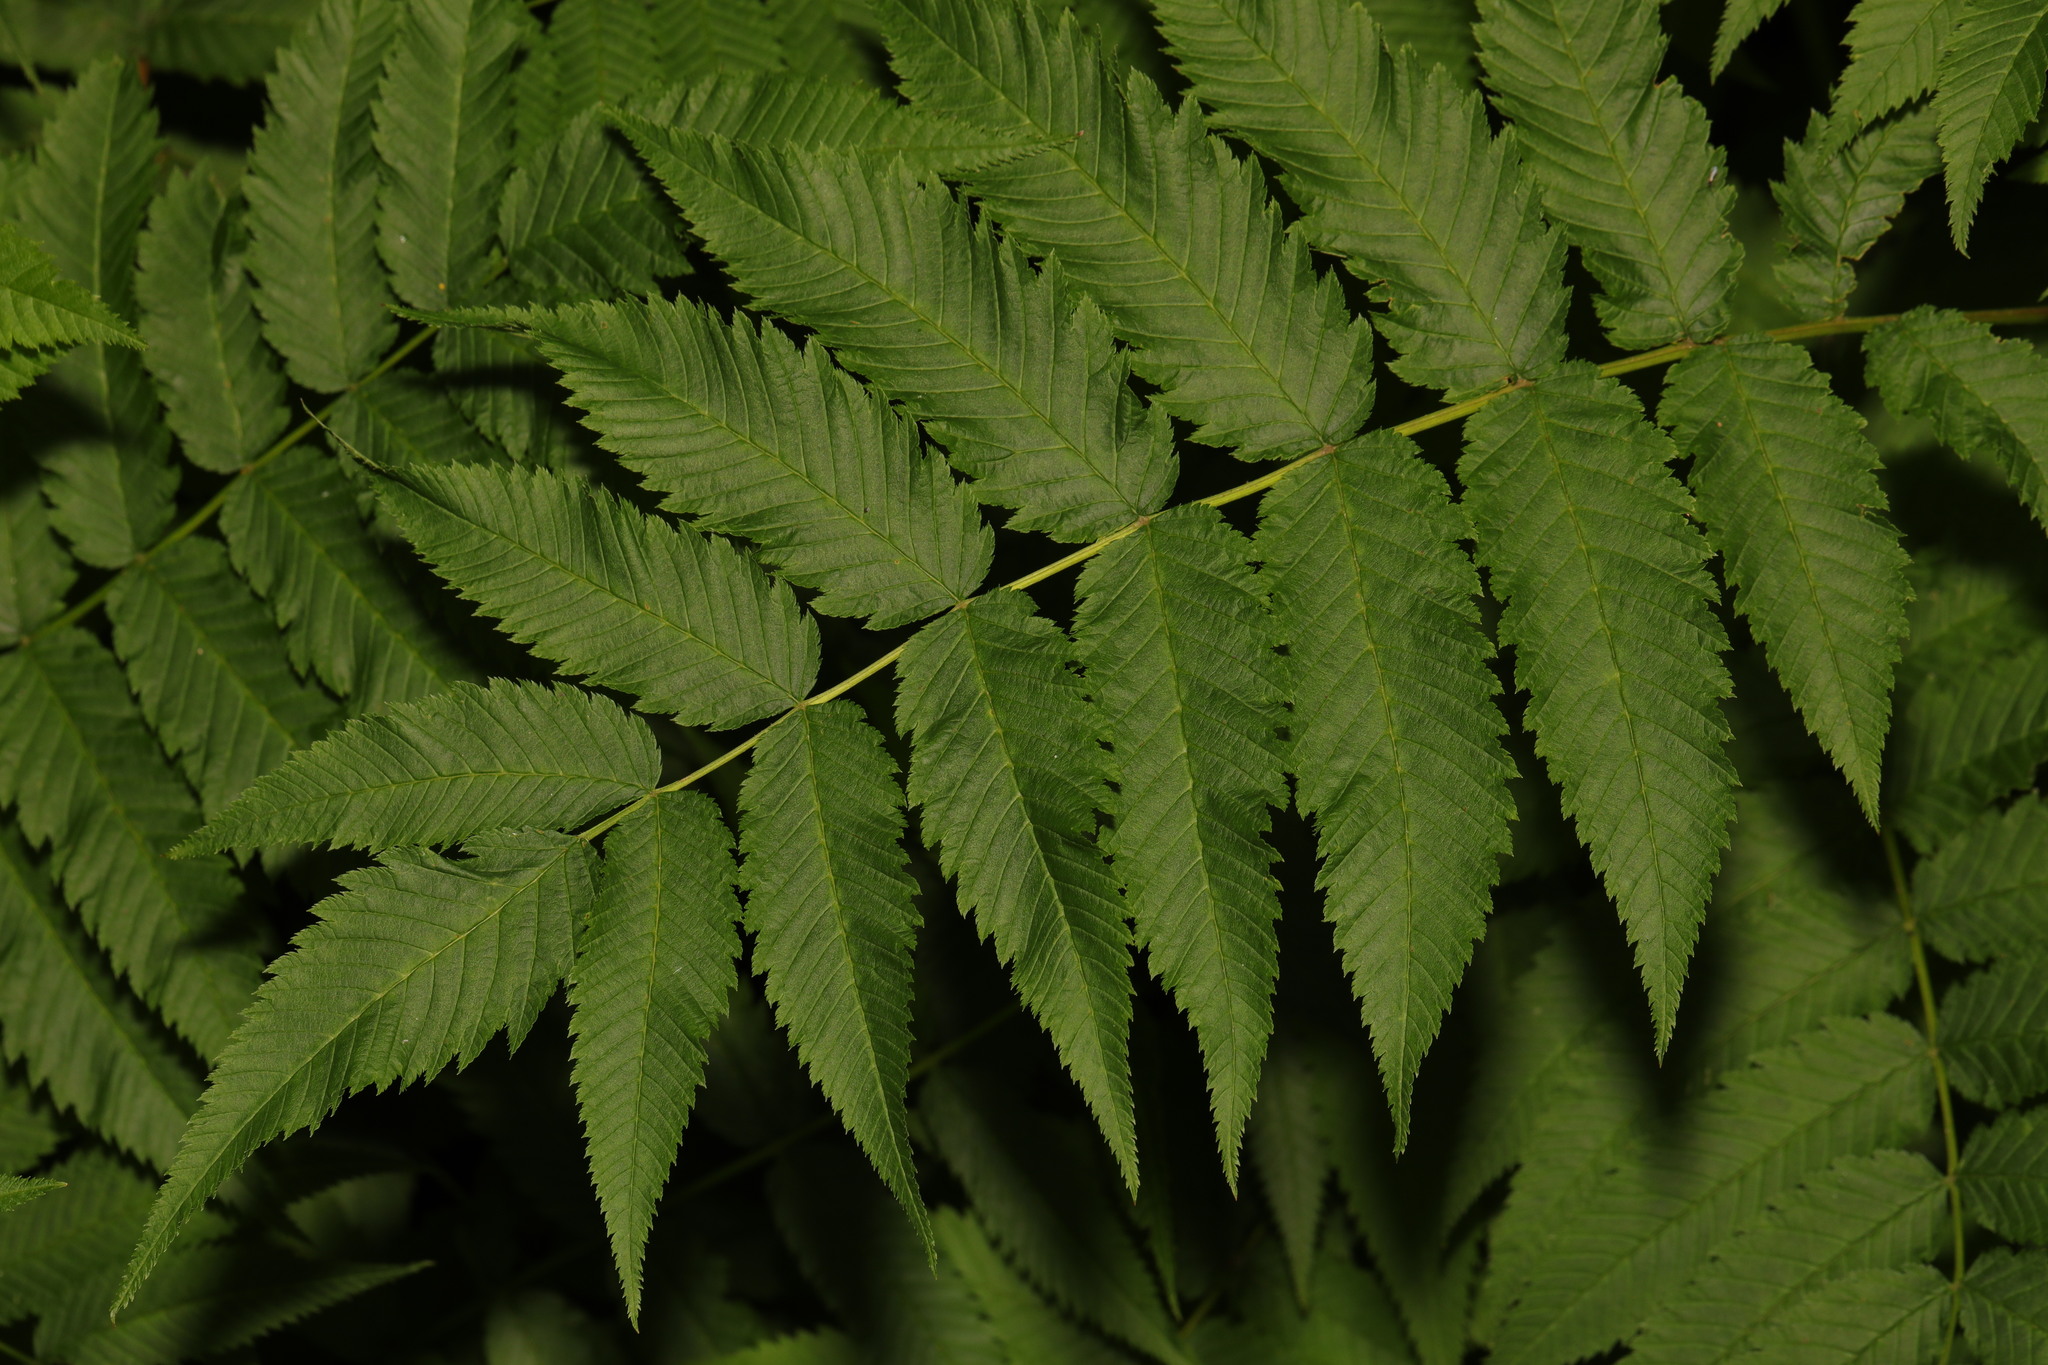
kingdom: Plantae
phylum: Tracheophyta
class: Magnoliopsida
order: Rosales
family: Rosaceae
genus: Sorbaria
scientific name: Sorbaria sorbifolia
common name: False spiraea
